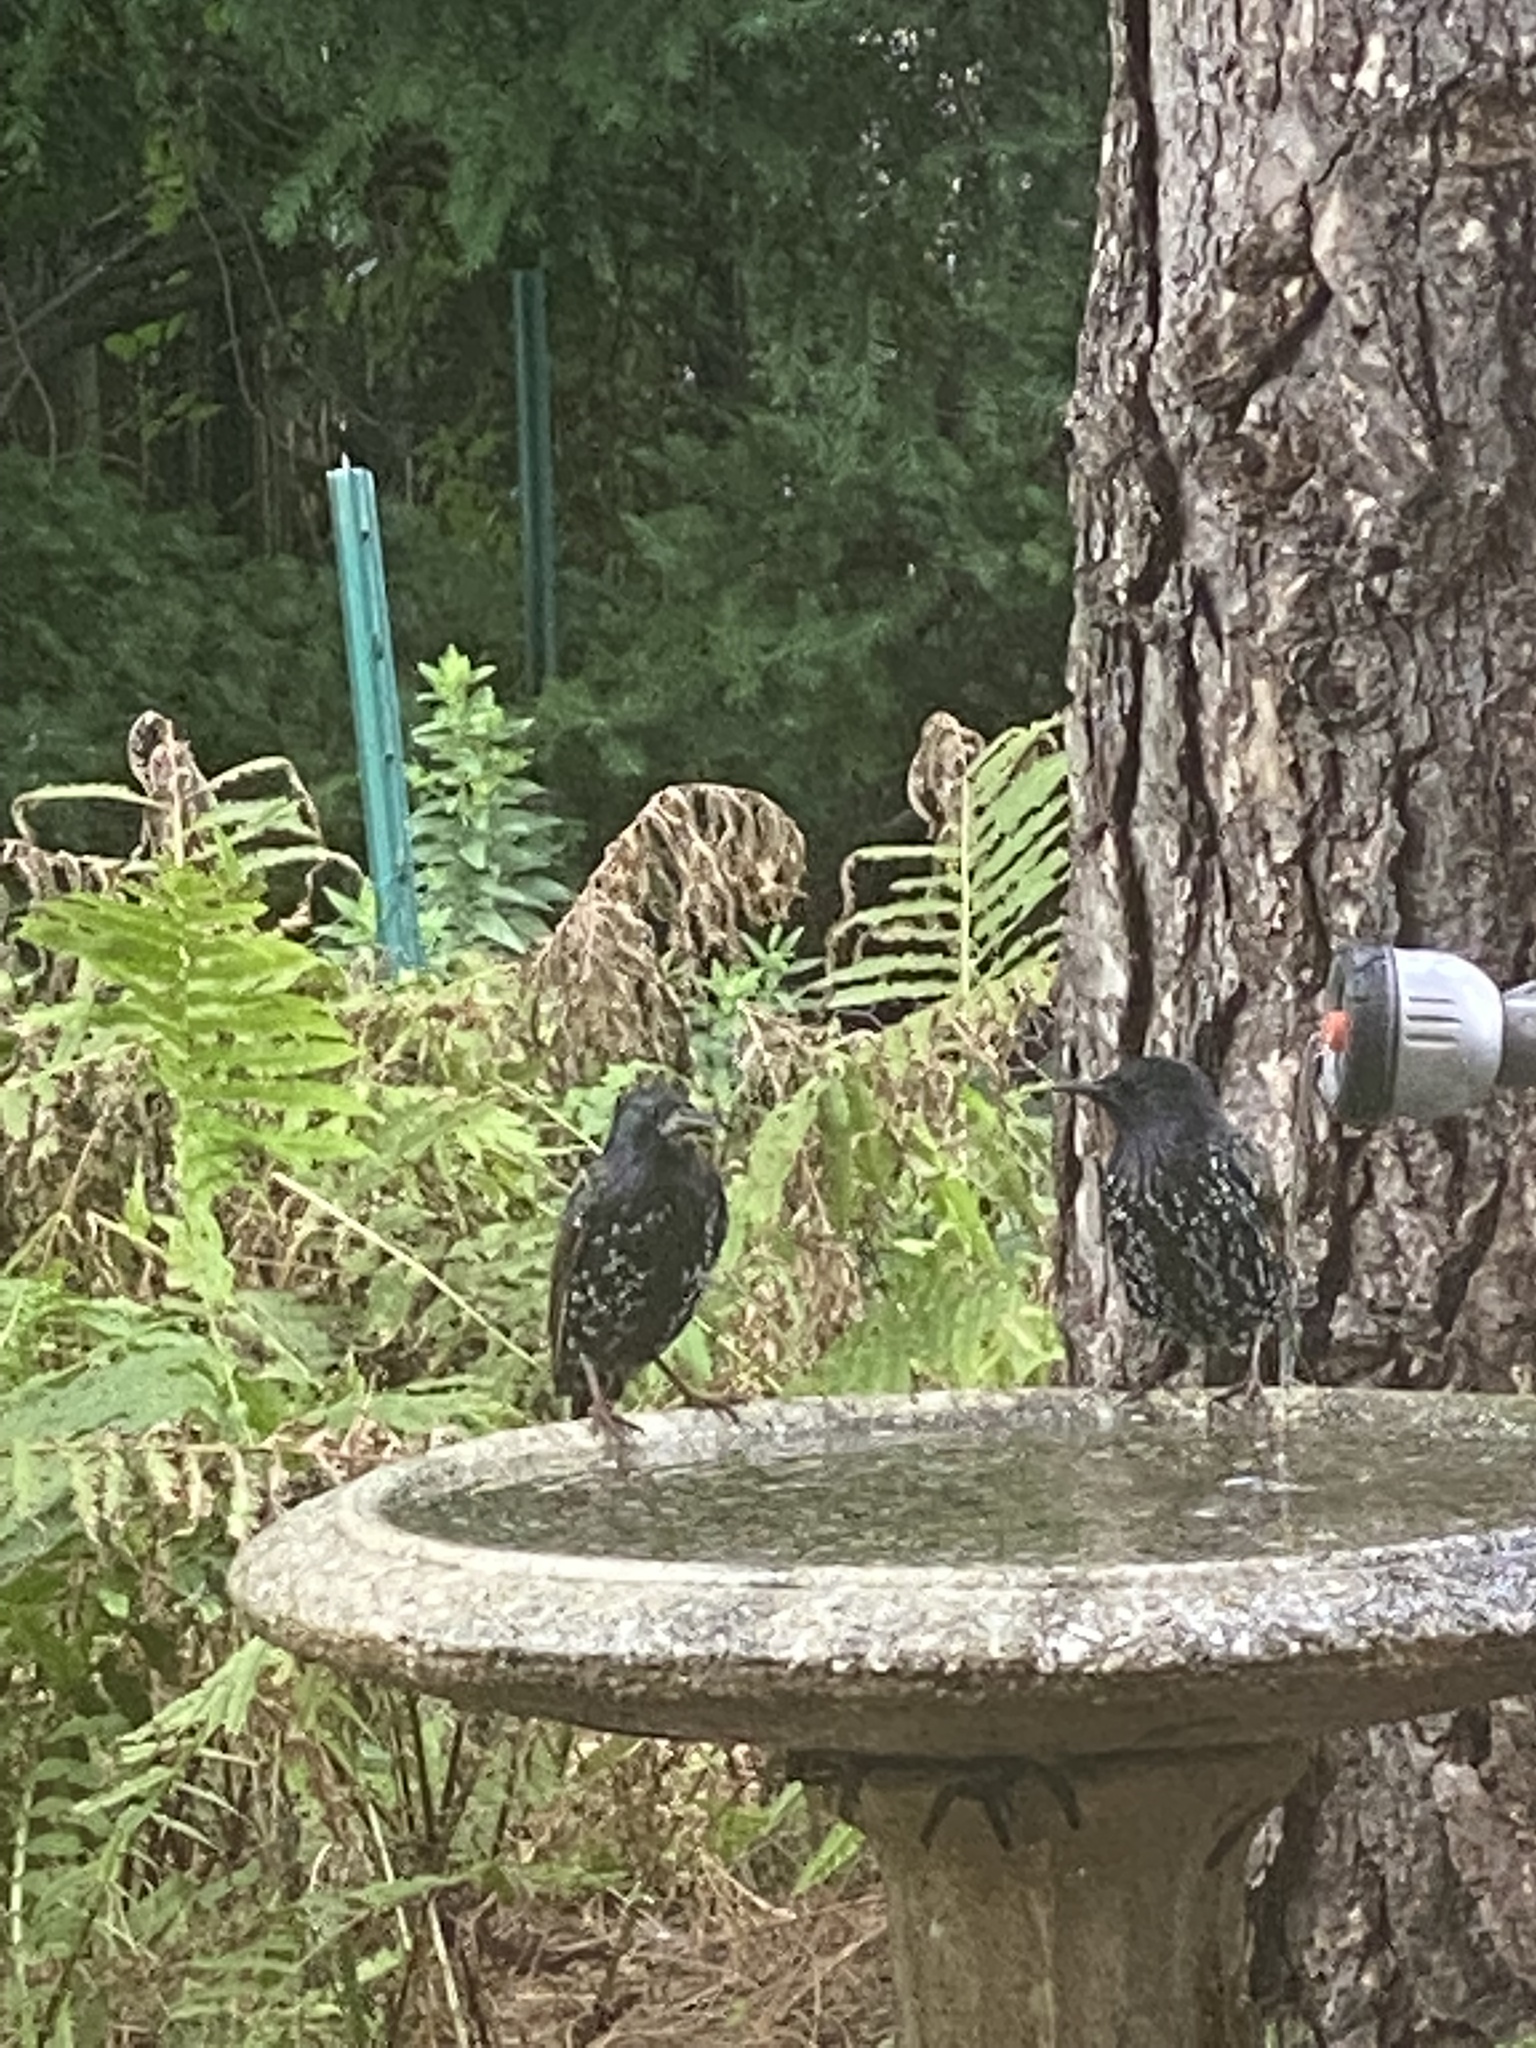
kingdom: Animalia
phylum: Chordata
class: Aves
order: Passeriformes
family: Sturnidae
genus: Sturnus
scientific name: Sturnus vulgaris
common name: Common starling
